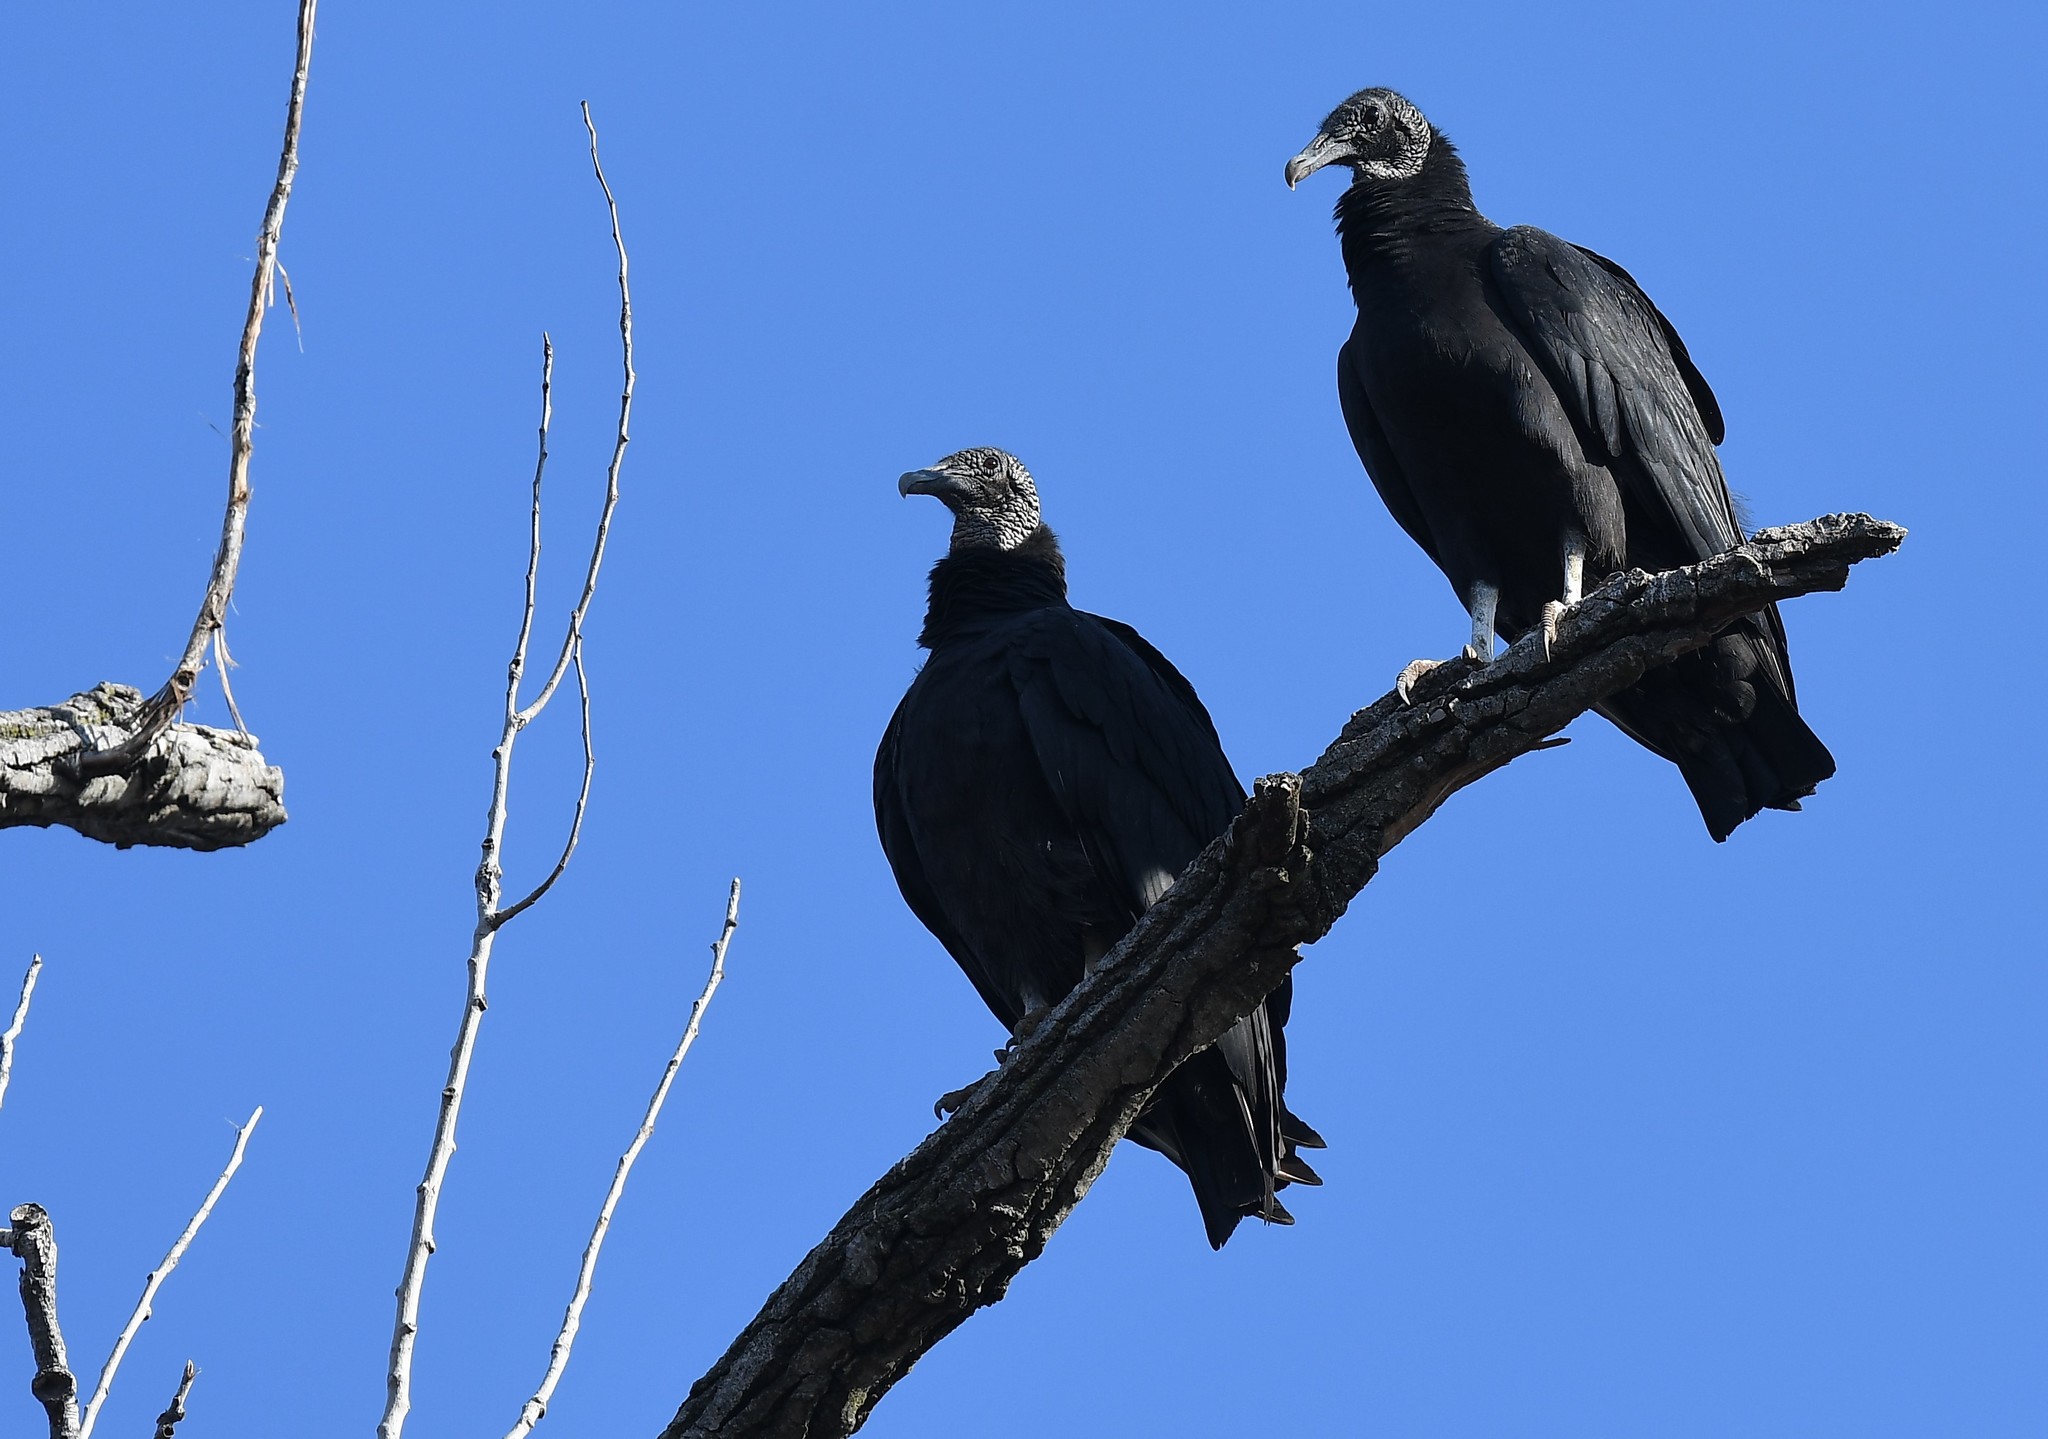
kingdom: Animalia
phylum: Chordata
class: Aves
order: Accipitriformes
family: Cathartidae
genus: Coragyps
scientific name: Coragyps atratus
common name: Black vulture
